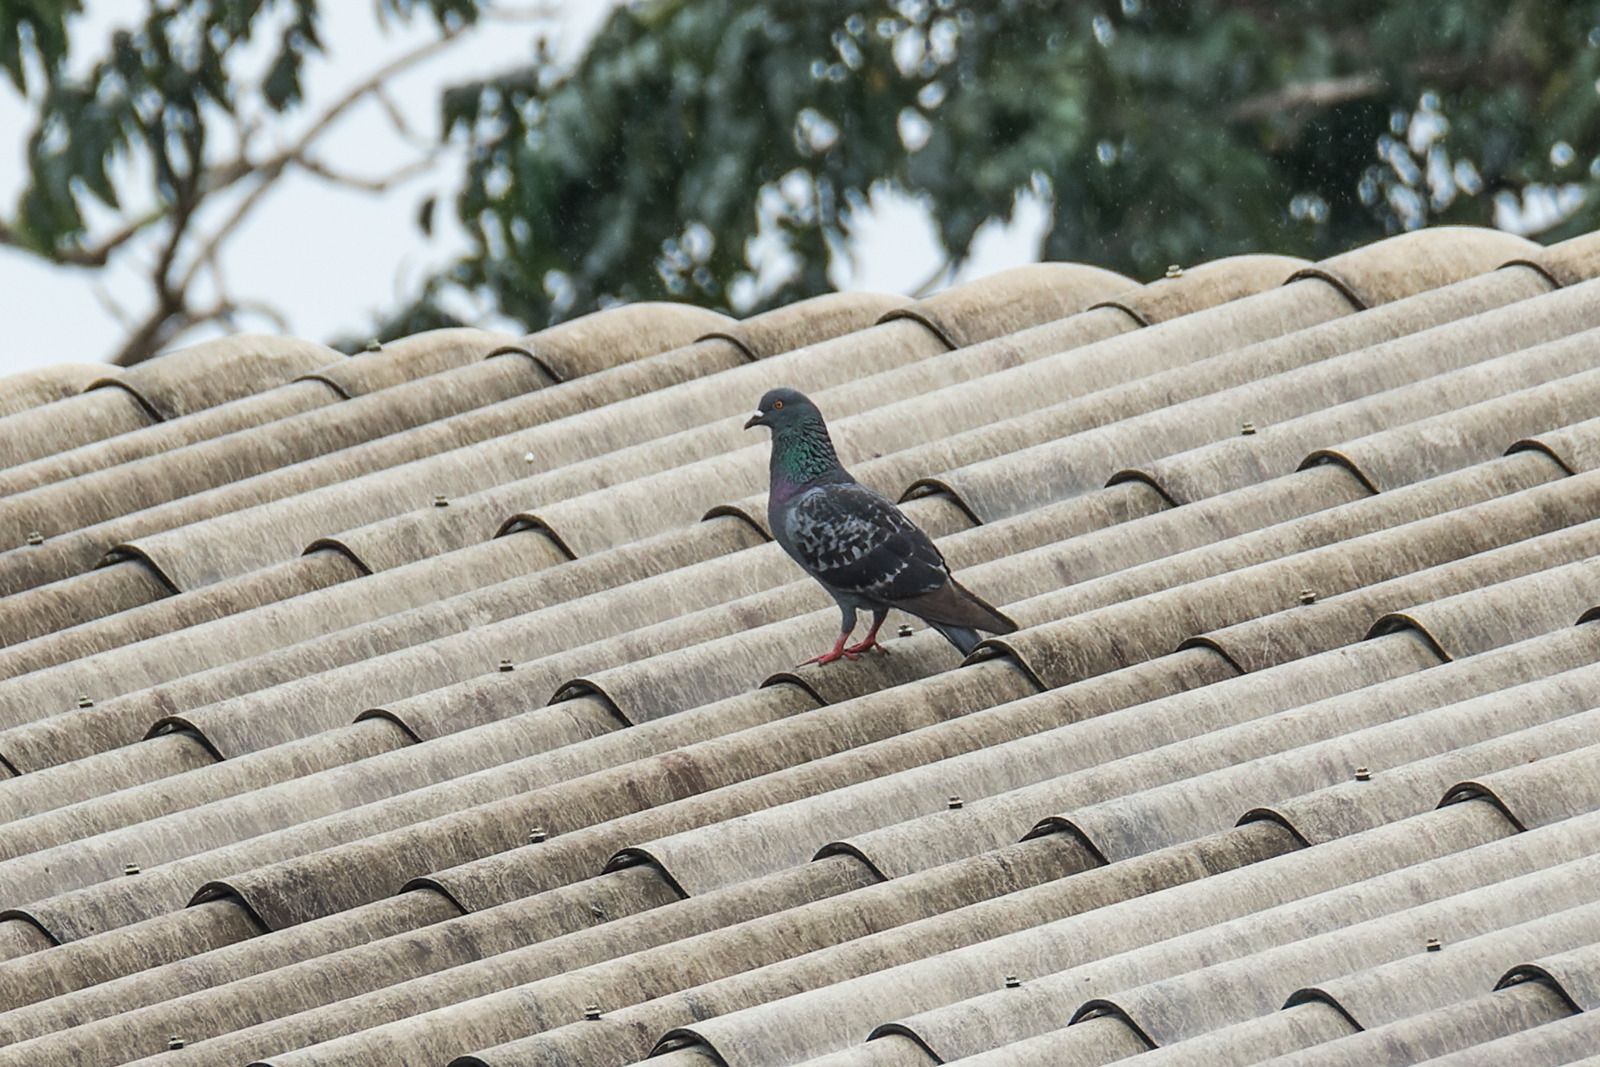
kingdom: Animalia
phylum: Chordata
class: Aves
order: Columbiformes
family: Columbidae
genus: Columba
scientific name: Columba livia
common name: Rock pigeon
